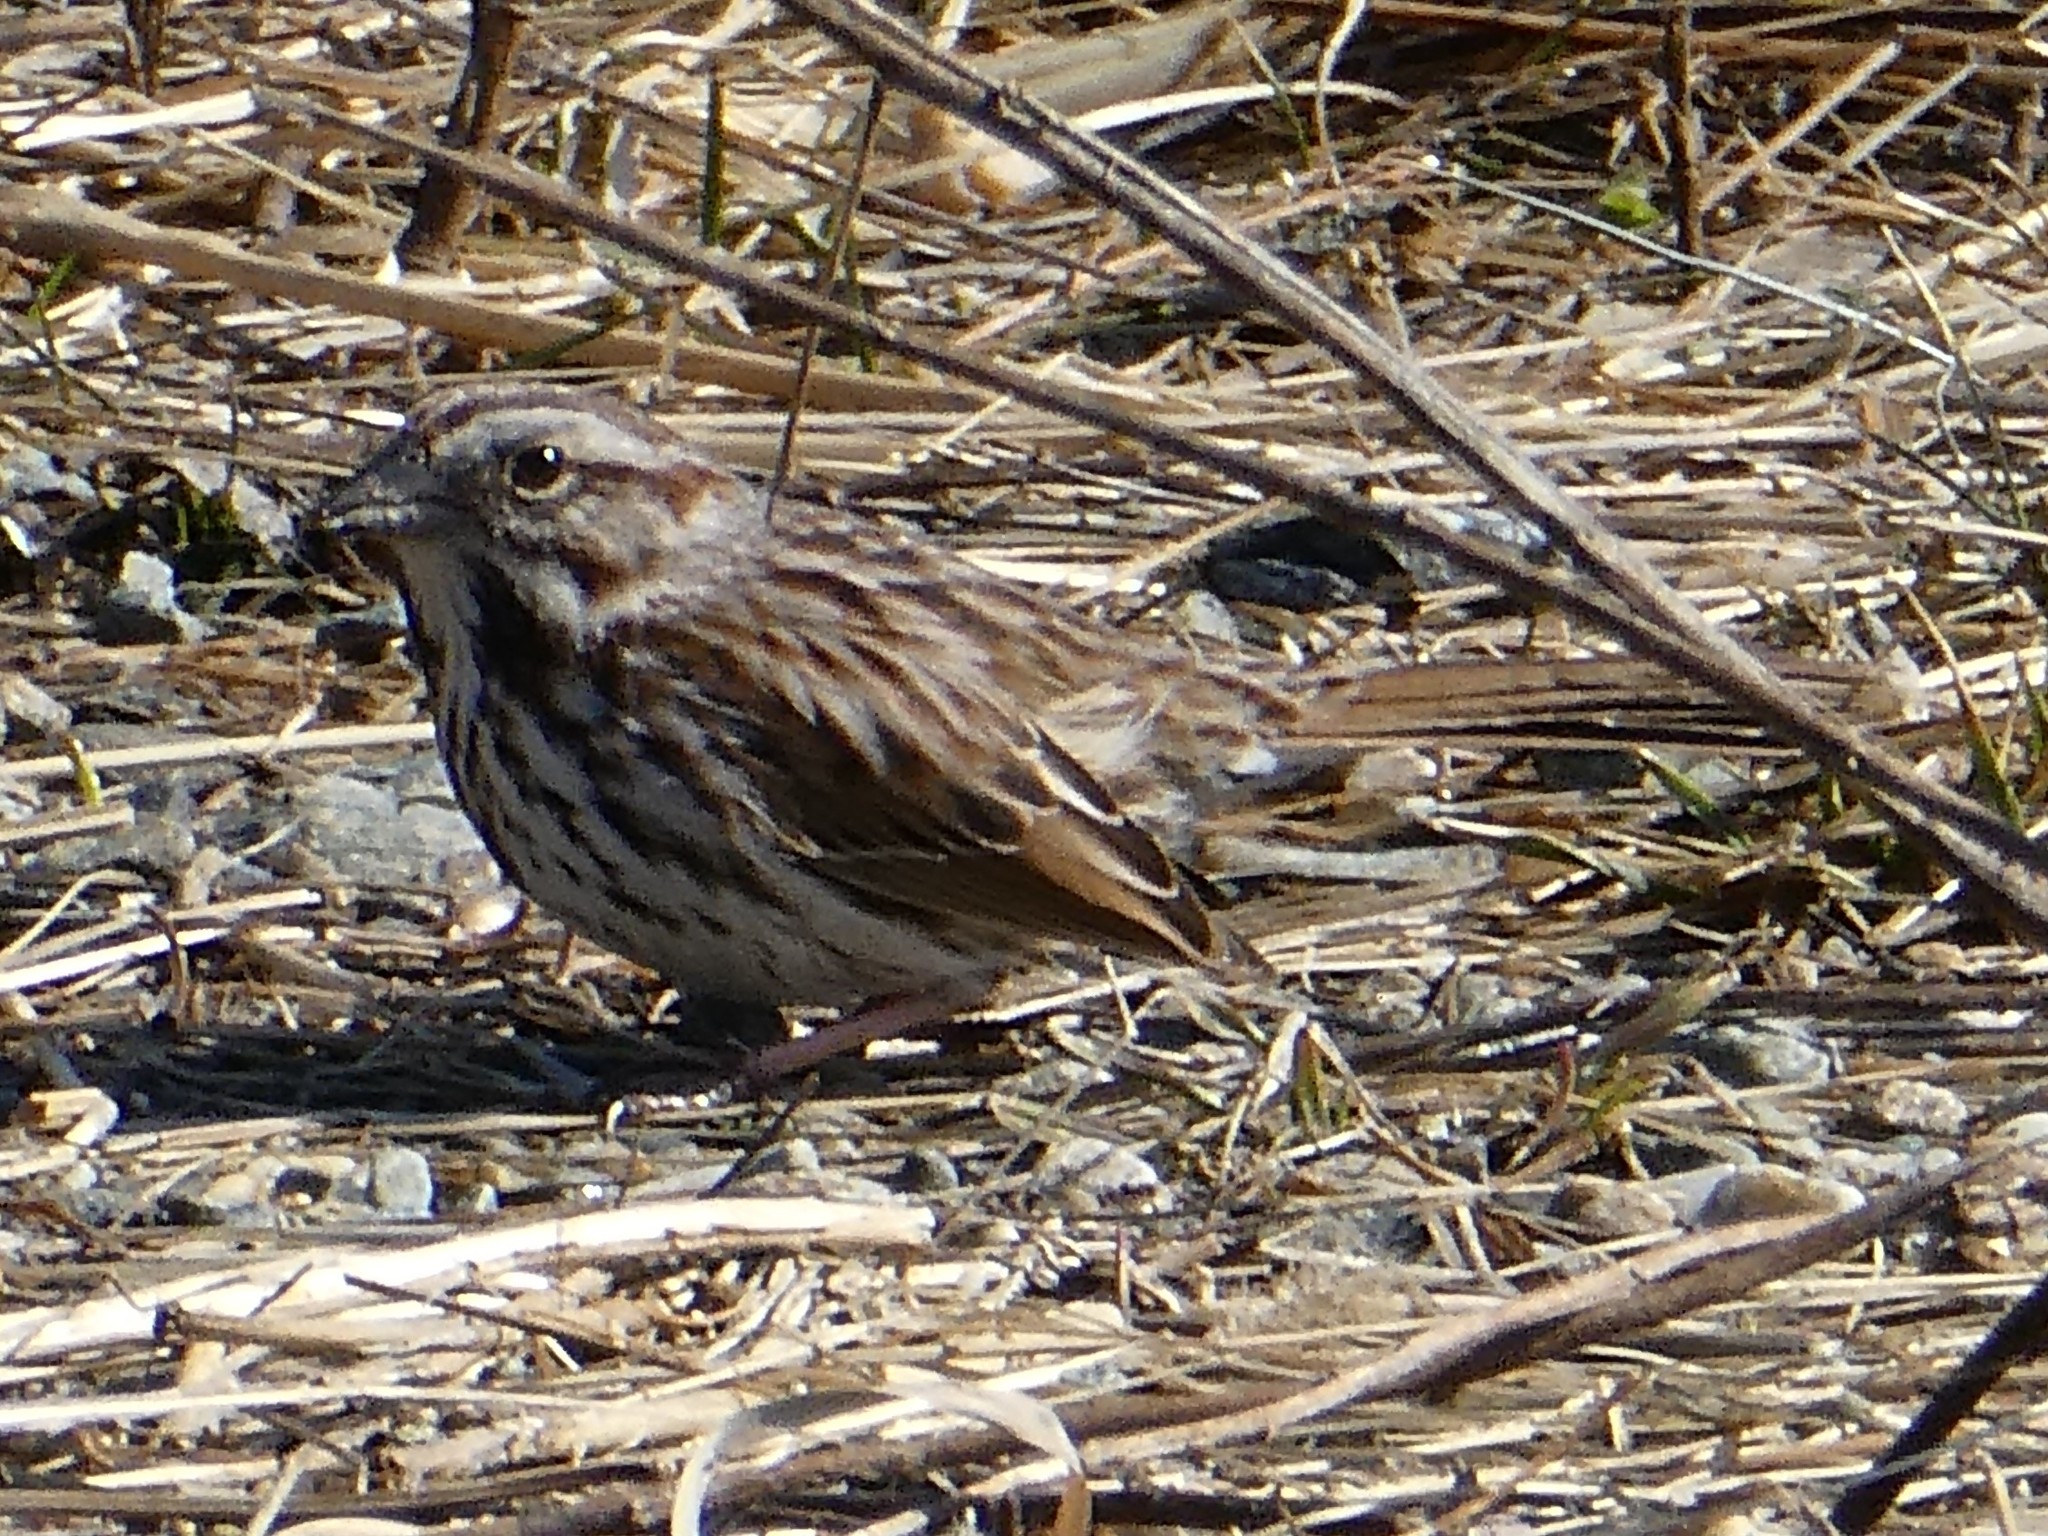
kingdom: Animalia
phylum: Chordata
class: Aves
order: Passeriformes
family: Passerellidae
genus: Melospiza
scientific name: Melospiza melodia
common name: Song sparrow
